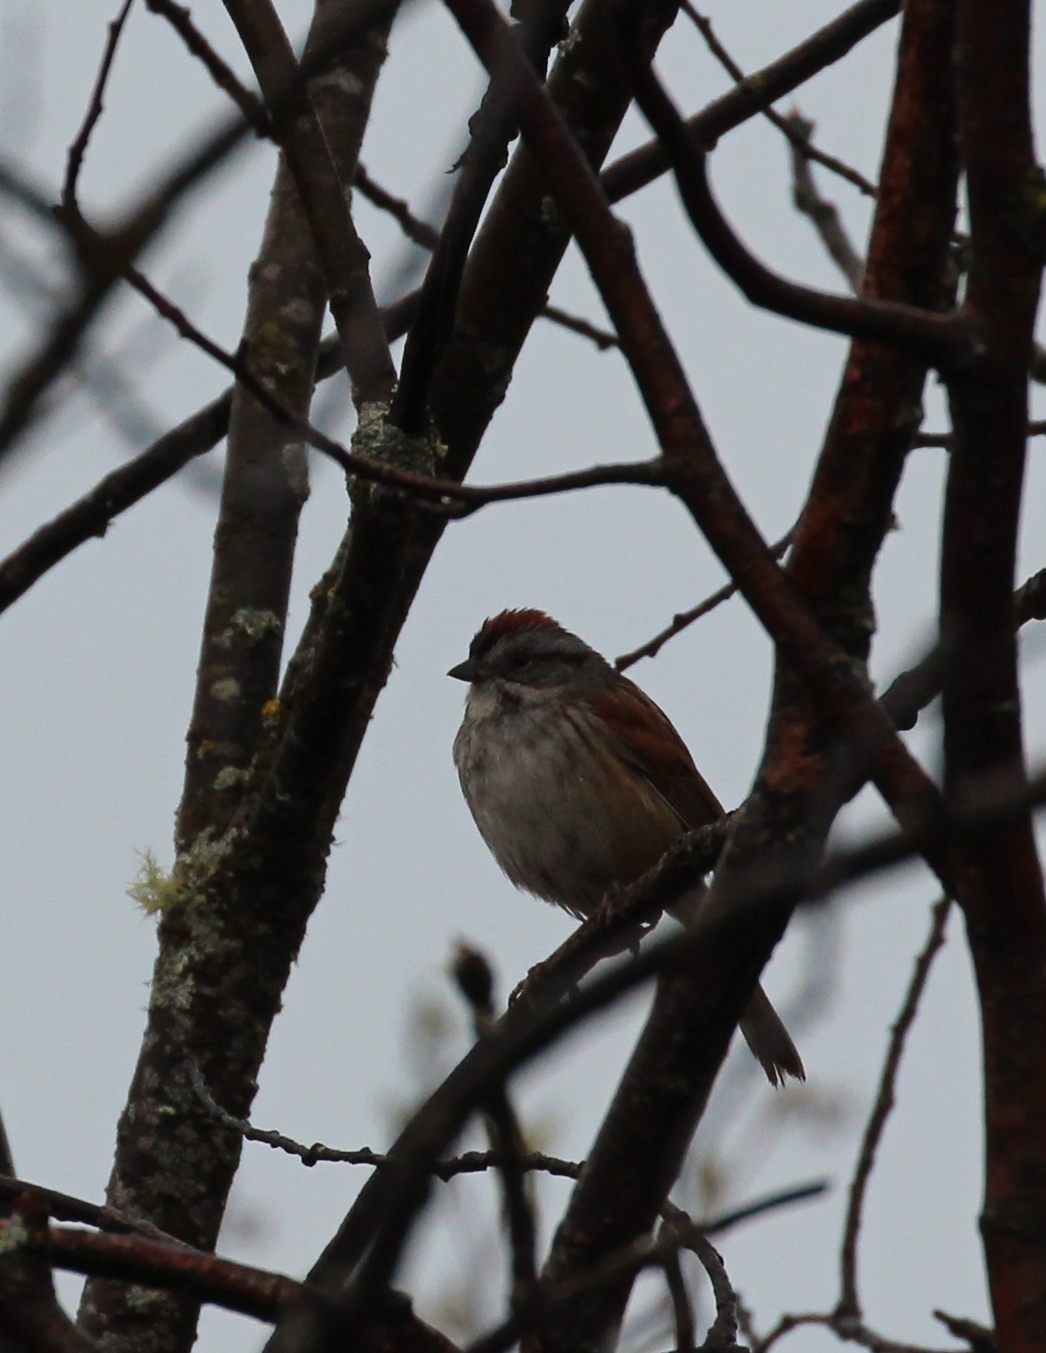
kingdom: Animalia
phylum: Chordata
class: Aves
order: Passeriformes
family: Passerellidae
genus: Melospiza
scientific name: Melospiza georgiana
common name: Swamp sparrow
